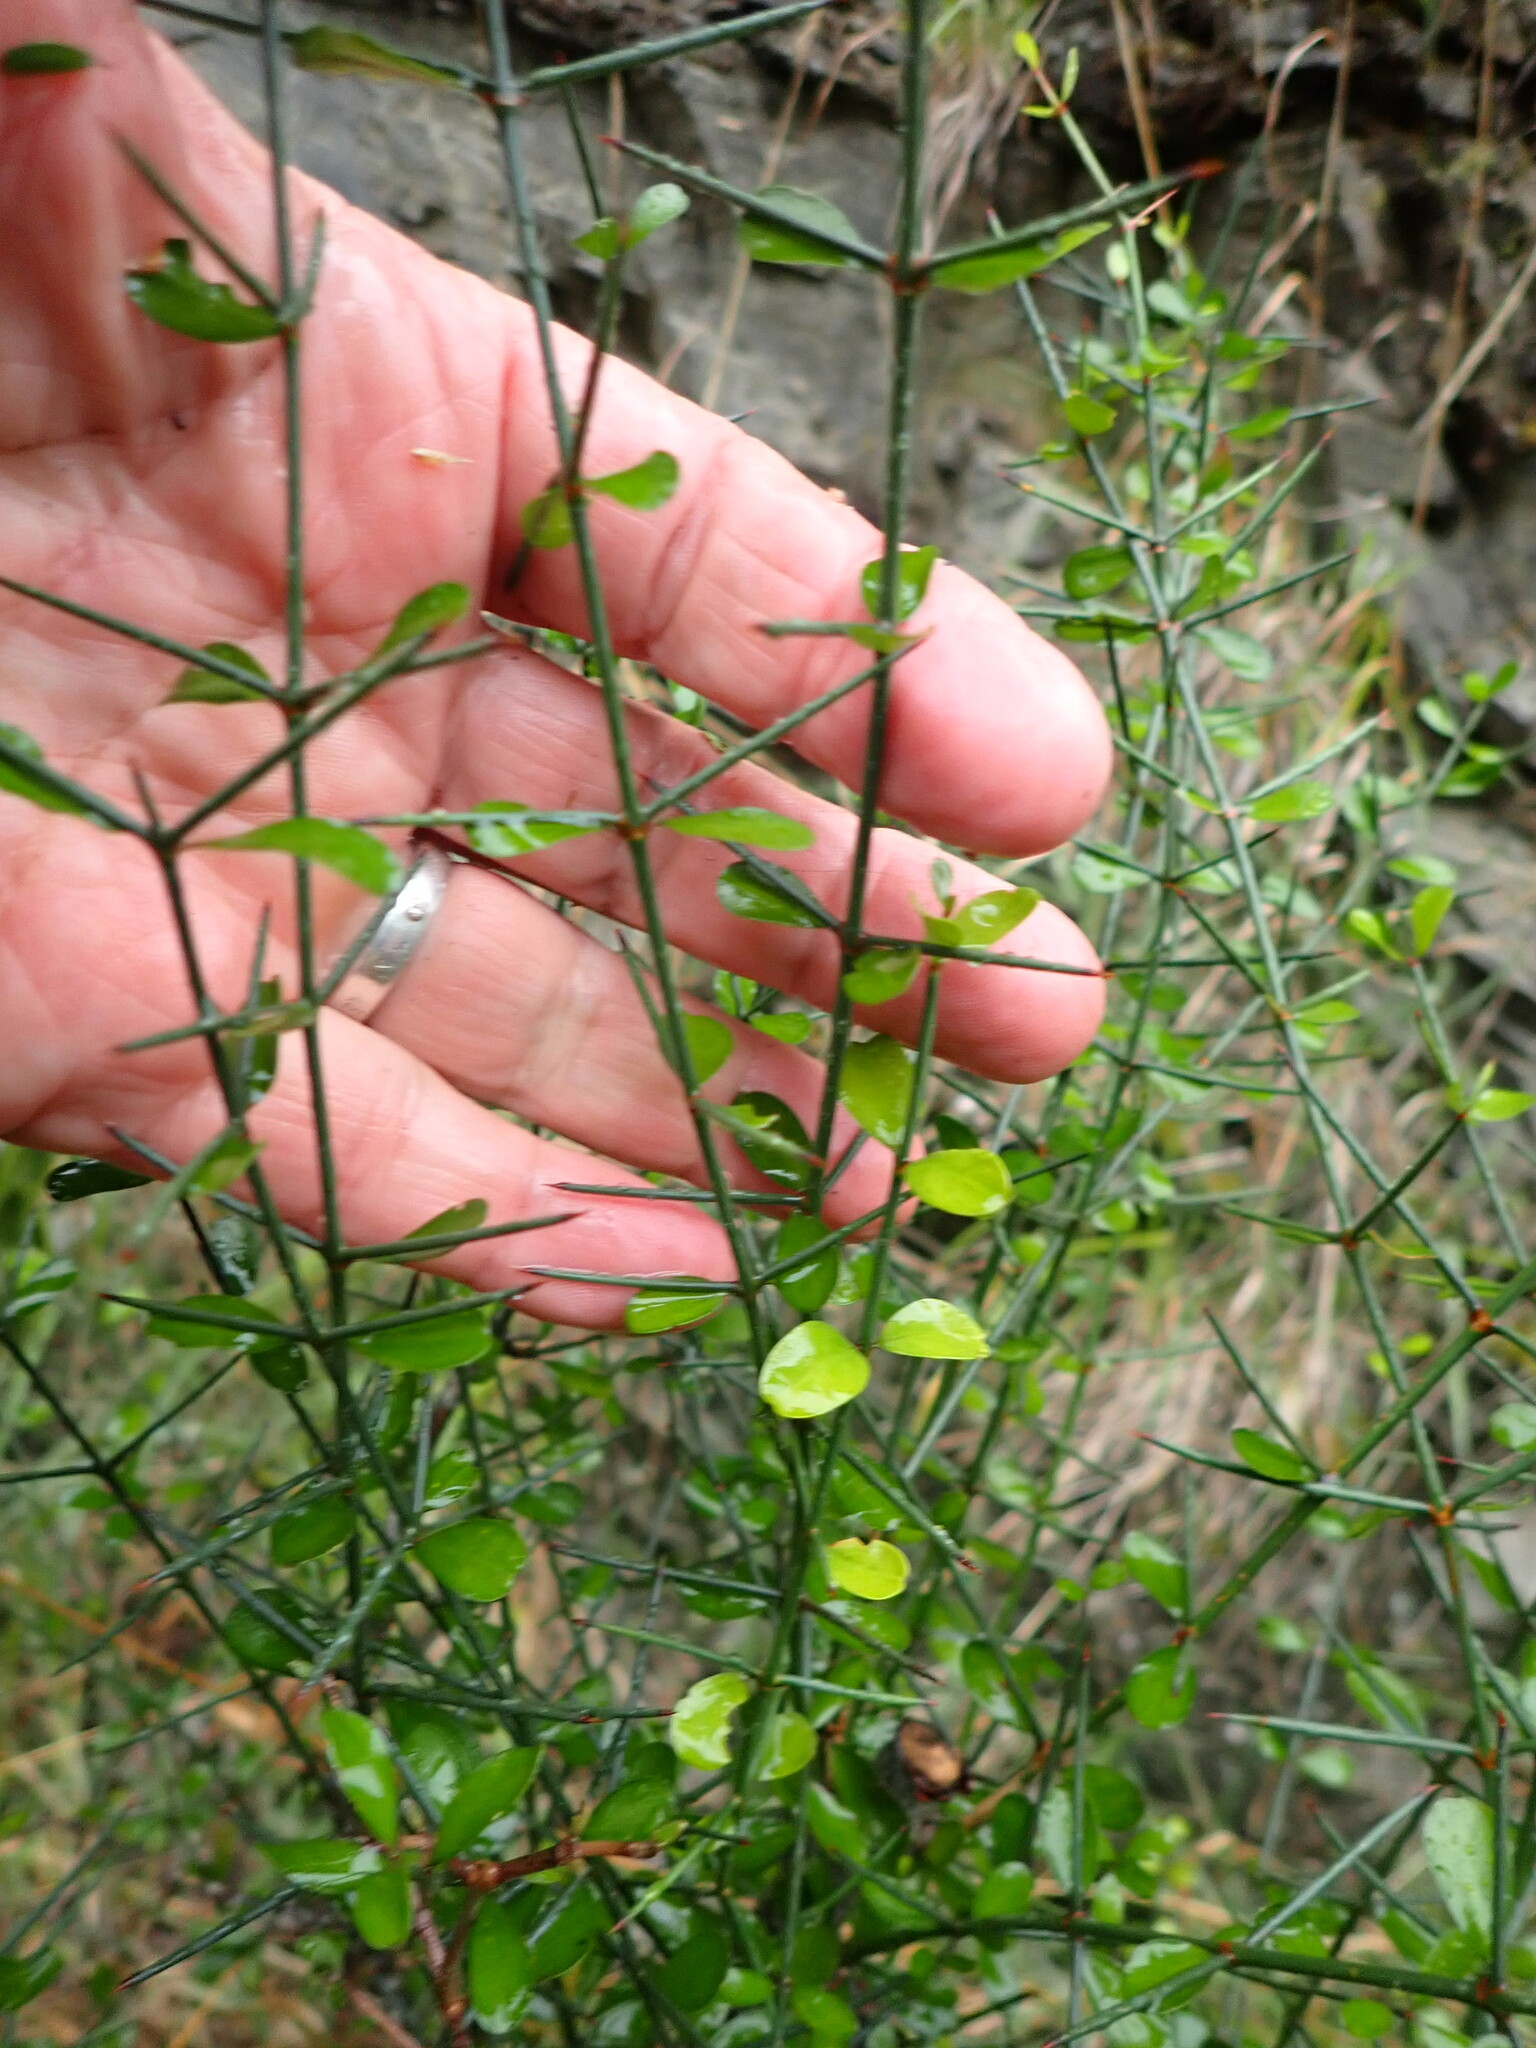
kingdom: Plantae
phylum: Tracheophyta
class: Magnoliopsida
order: Rosales
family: Rhamnaceae
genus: Discaria
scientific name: Discaria toumatou
